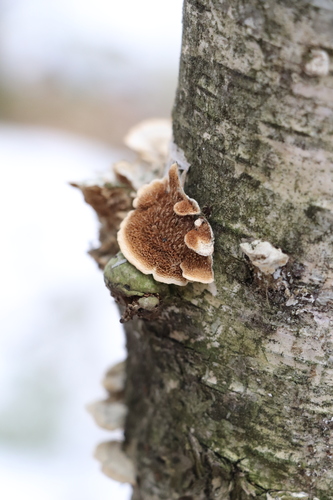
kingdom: Fungi
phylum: Basidiomycota
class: Agaricomycetes
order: Hymenochaetales
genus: Trichaptum
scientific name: Trichaptum biforme
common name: Violet-toothed polypore
